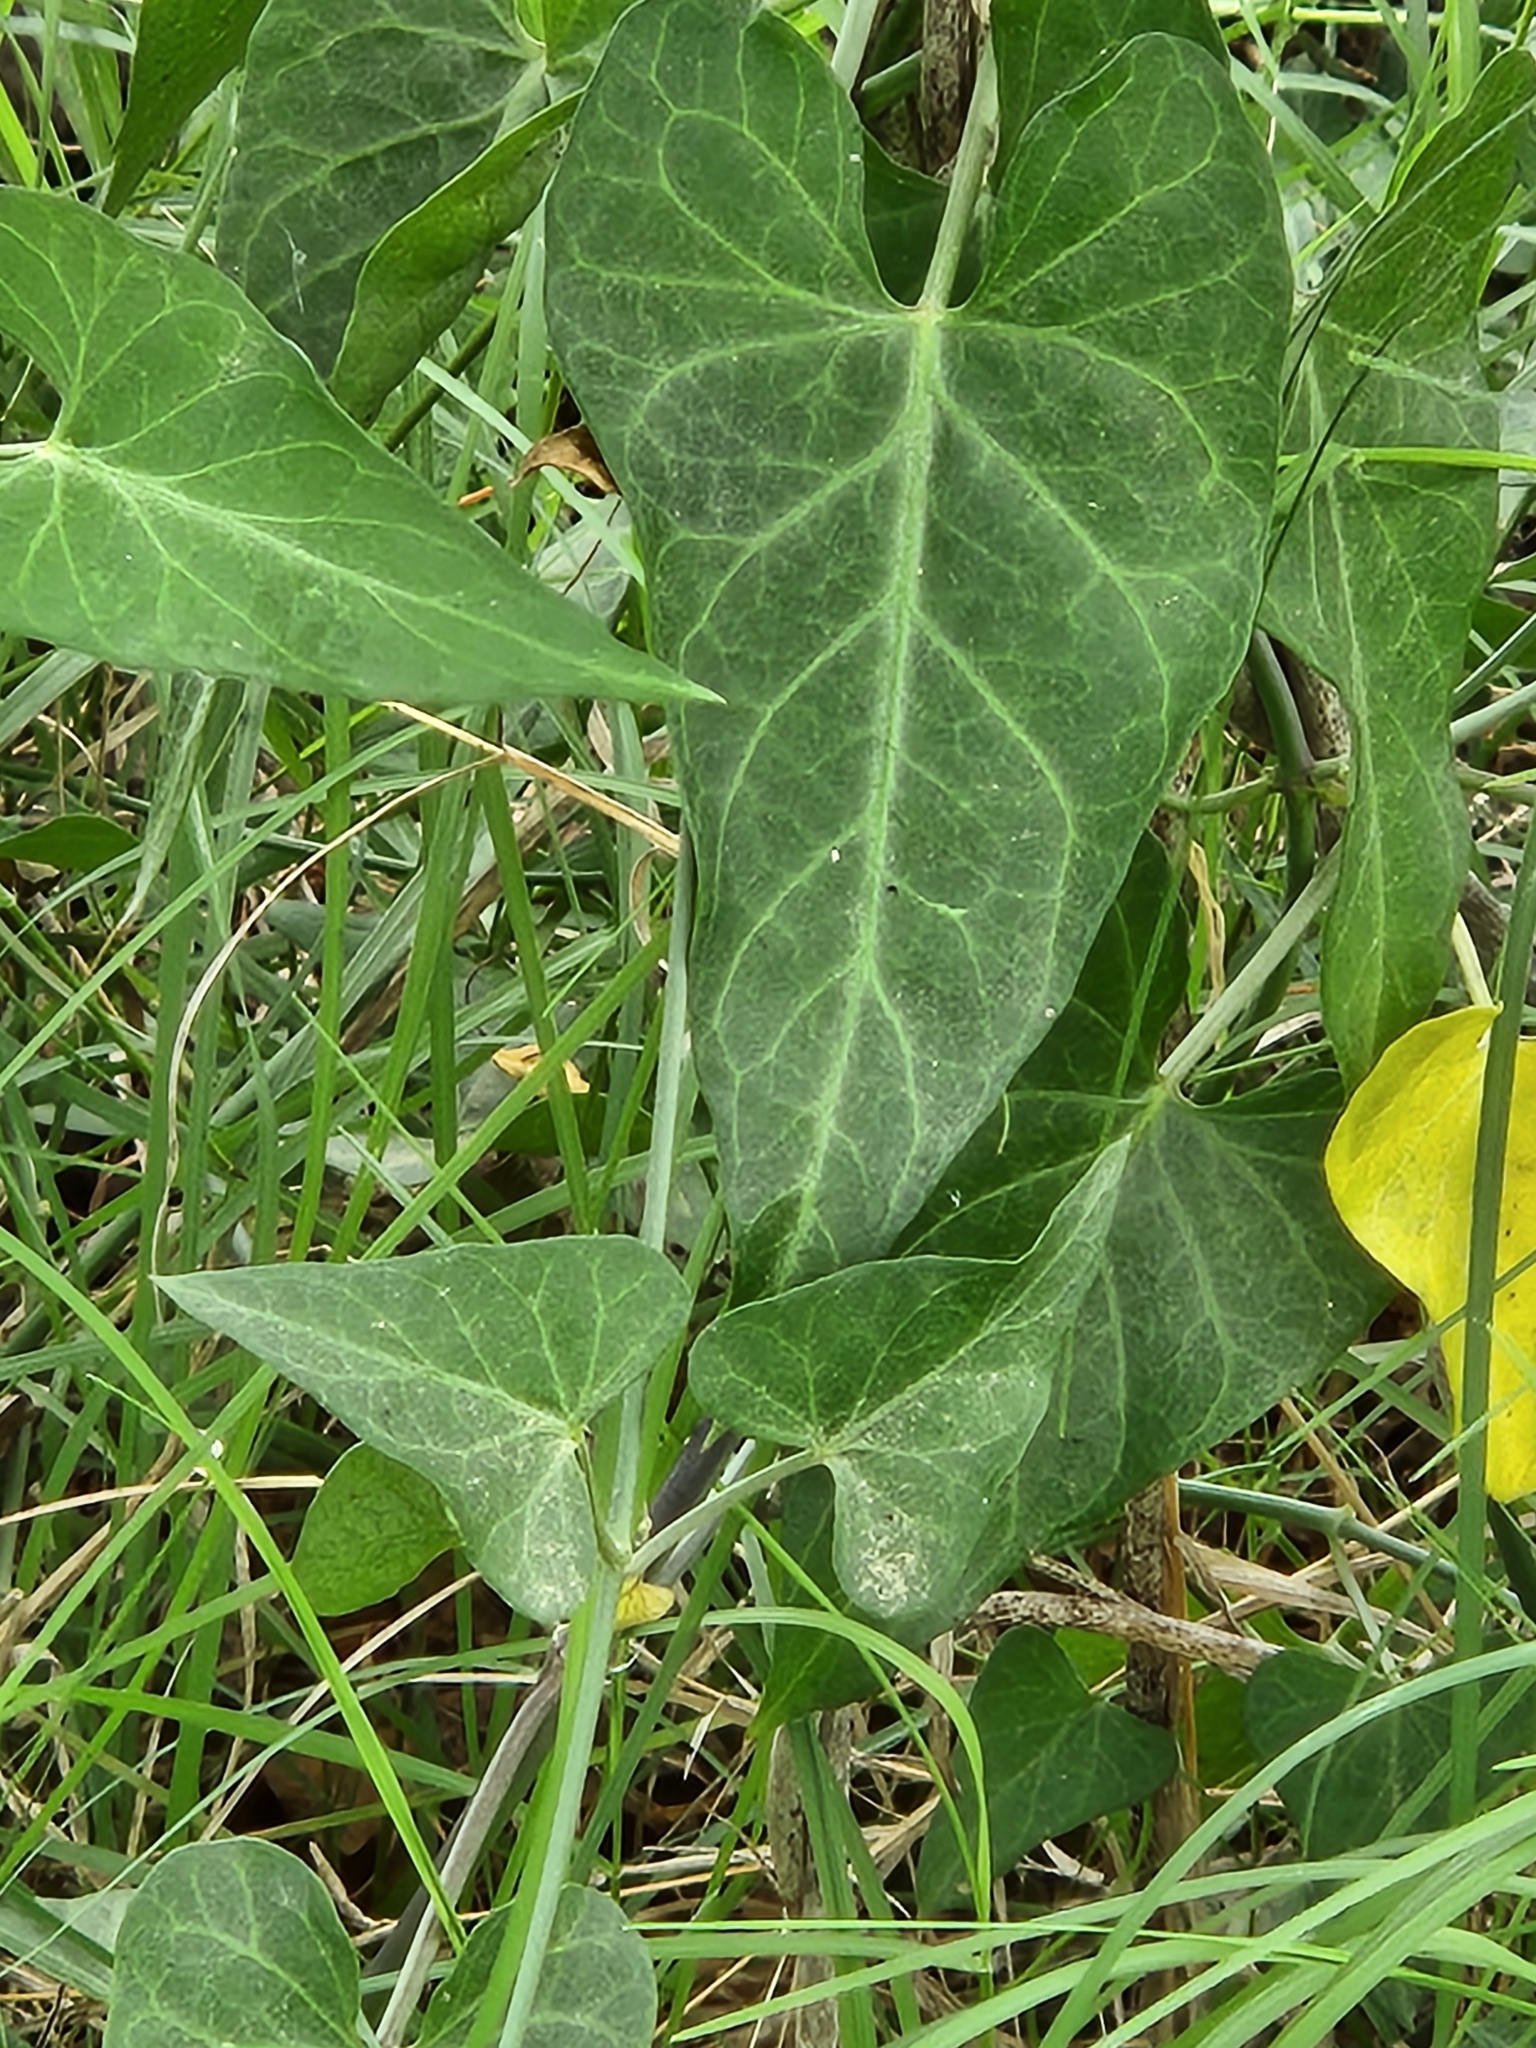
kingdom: Plantae
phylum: Tracheophyta
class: Magnoliopsida
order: Gentianales
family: Apocynaceae
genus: Funastrum
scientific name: Funastrum cynanchoides
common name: Climbing-milkweed
